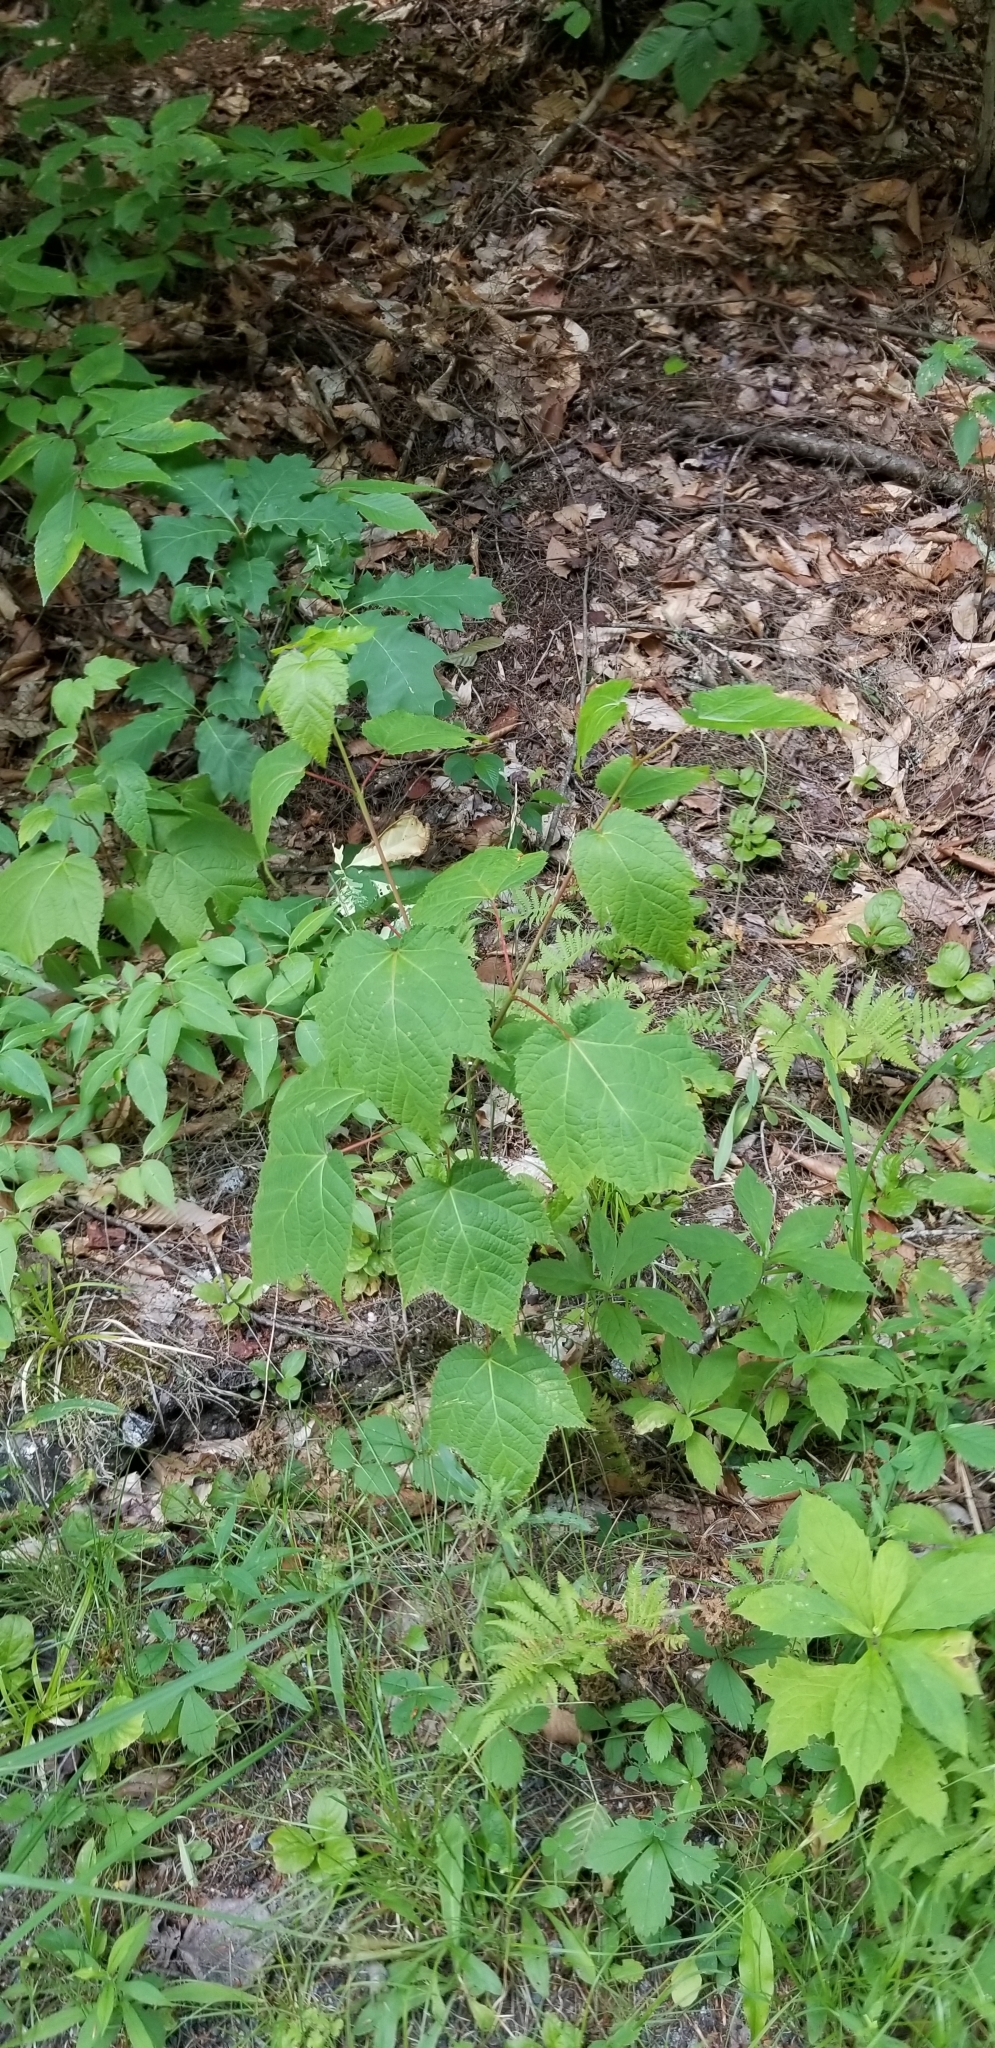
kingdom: Plantae
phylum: Tracheophyta
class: Magnoliopsida
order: Sapindales
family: Sapindaceae
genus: Acer
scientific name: Acer pensylvanicum
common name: Moosewood
